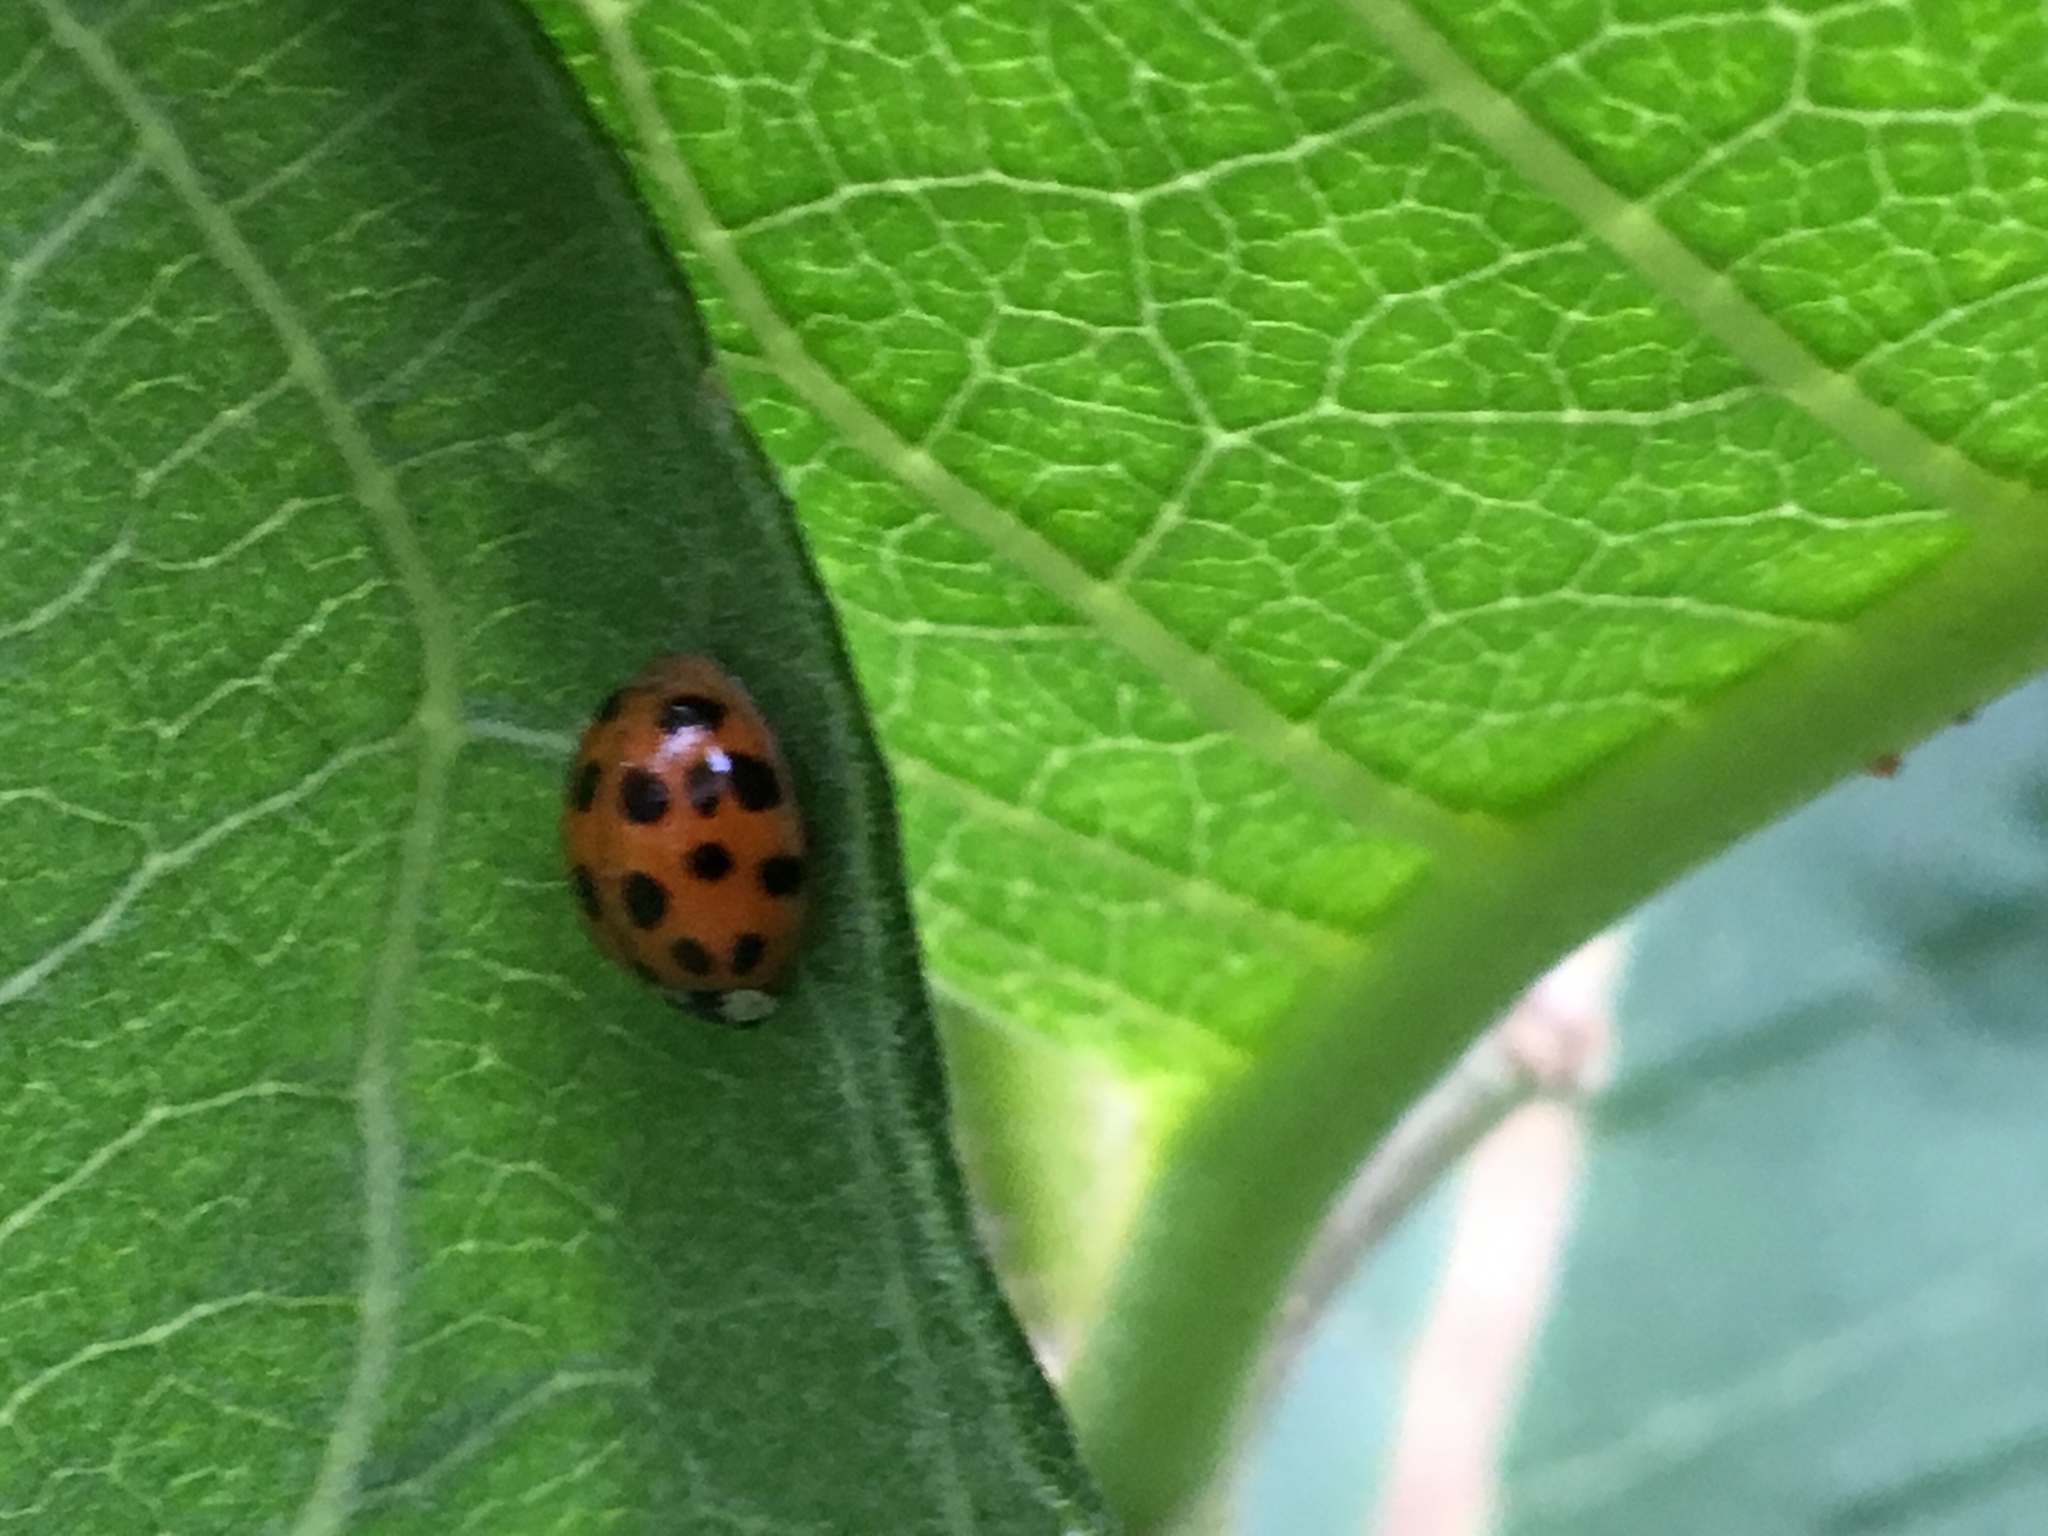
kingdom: Animalia
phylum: Arthropoda
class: Insecta
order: Coleoptera
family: Coccinellidae
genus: Harmonia
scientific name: Harmonia axyridis
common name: Harlequin ladybird
